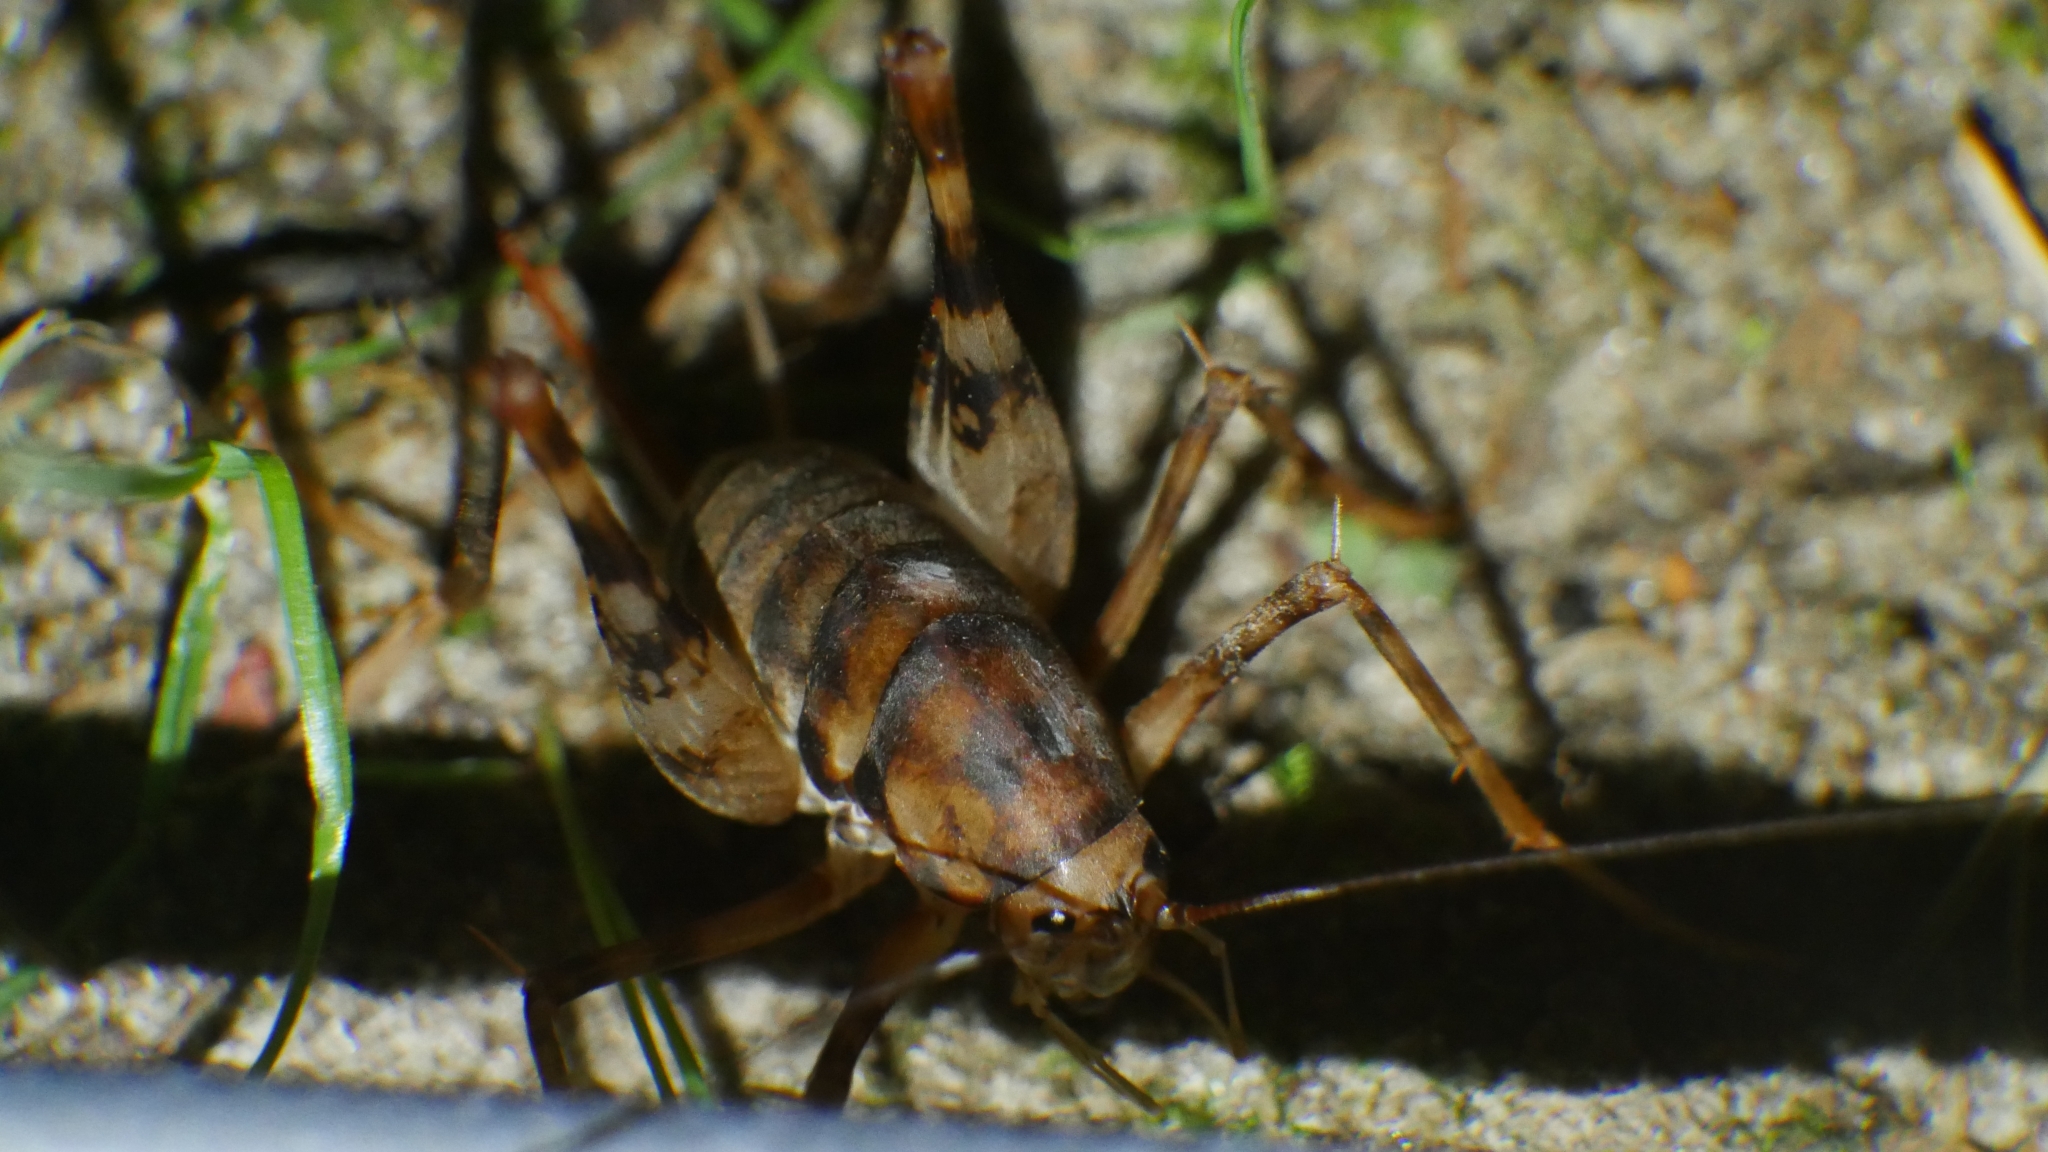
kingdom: Animalia
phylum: Arthropoda
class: Insecta
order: Orthoptera
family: Rhaphidophoridae
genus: Tachycines
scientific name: Tachycines asynamorus
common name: Greenhouse camel cricket
